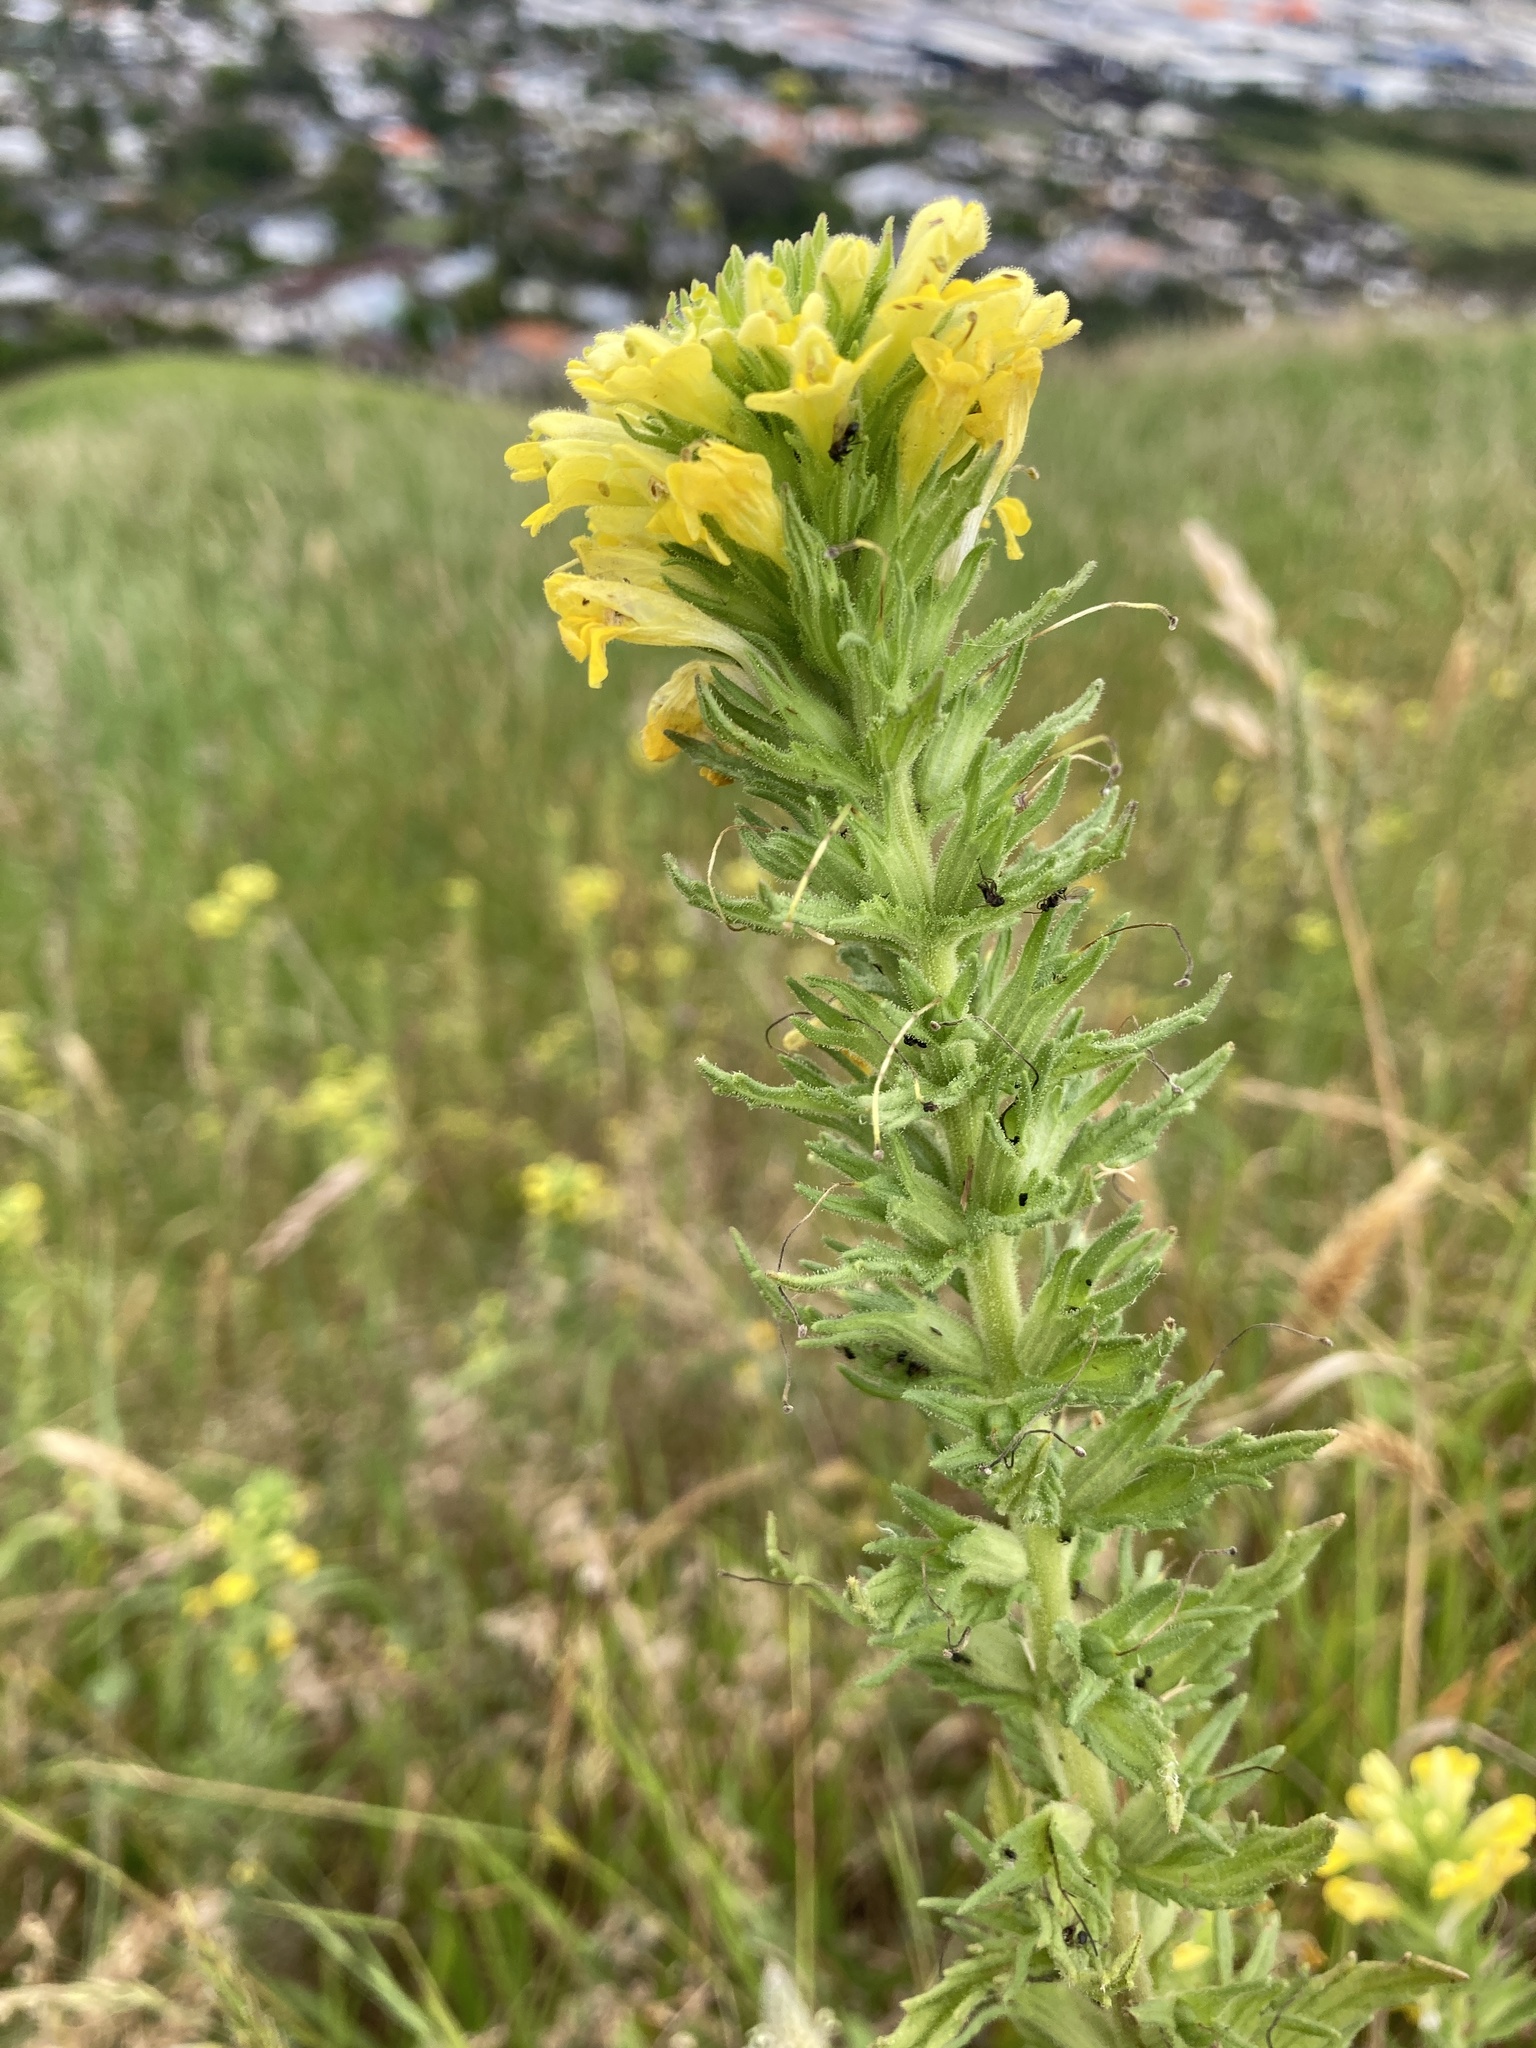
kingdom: Plantae
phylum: Tracheophyta
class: Magnoliopsida
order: Lamiales
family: Orobanchaceae
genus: Bellardia
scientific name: Bellardia viscosa
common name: Sticky parentucellia
